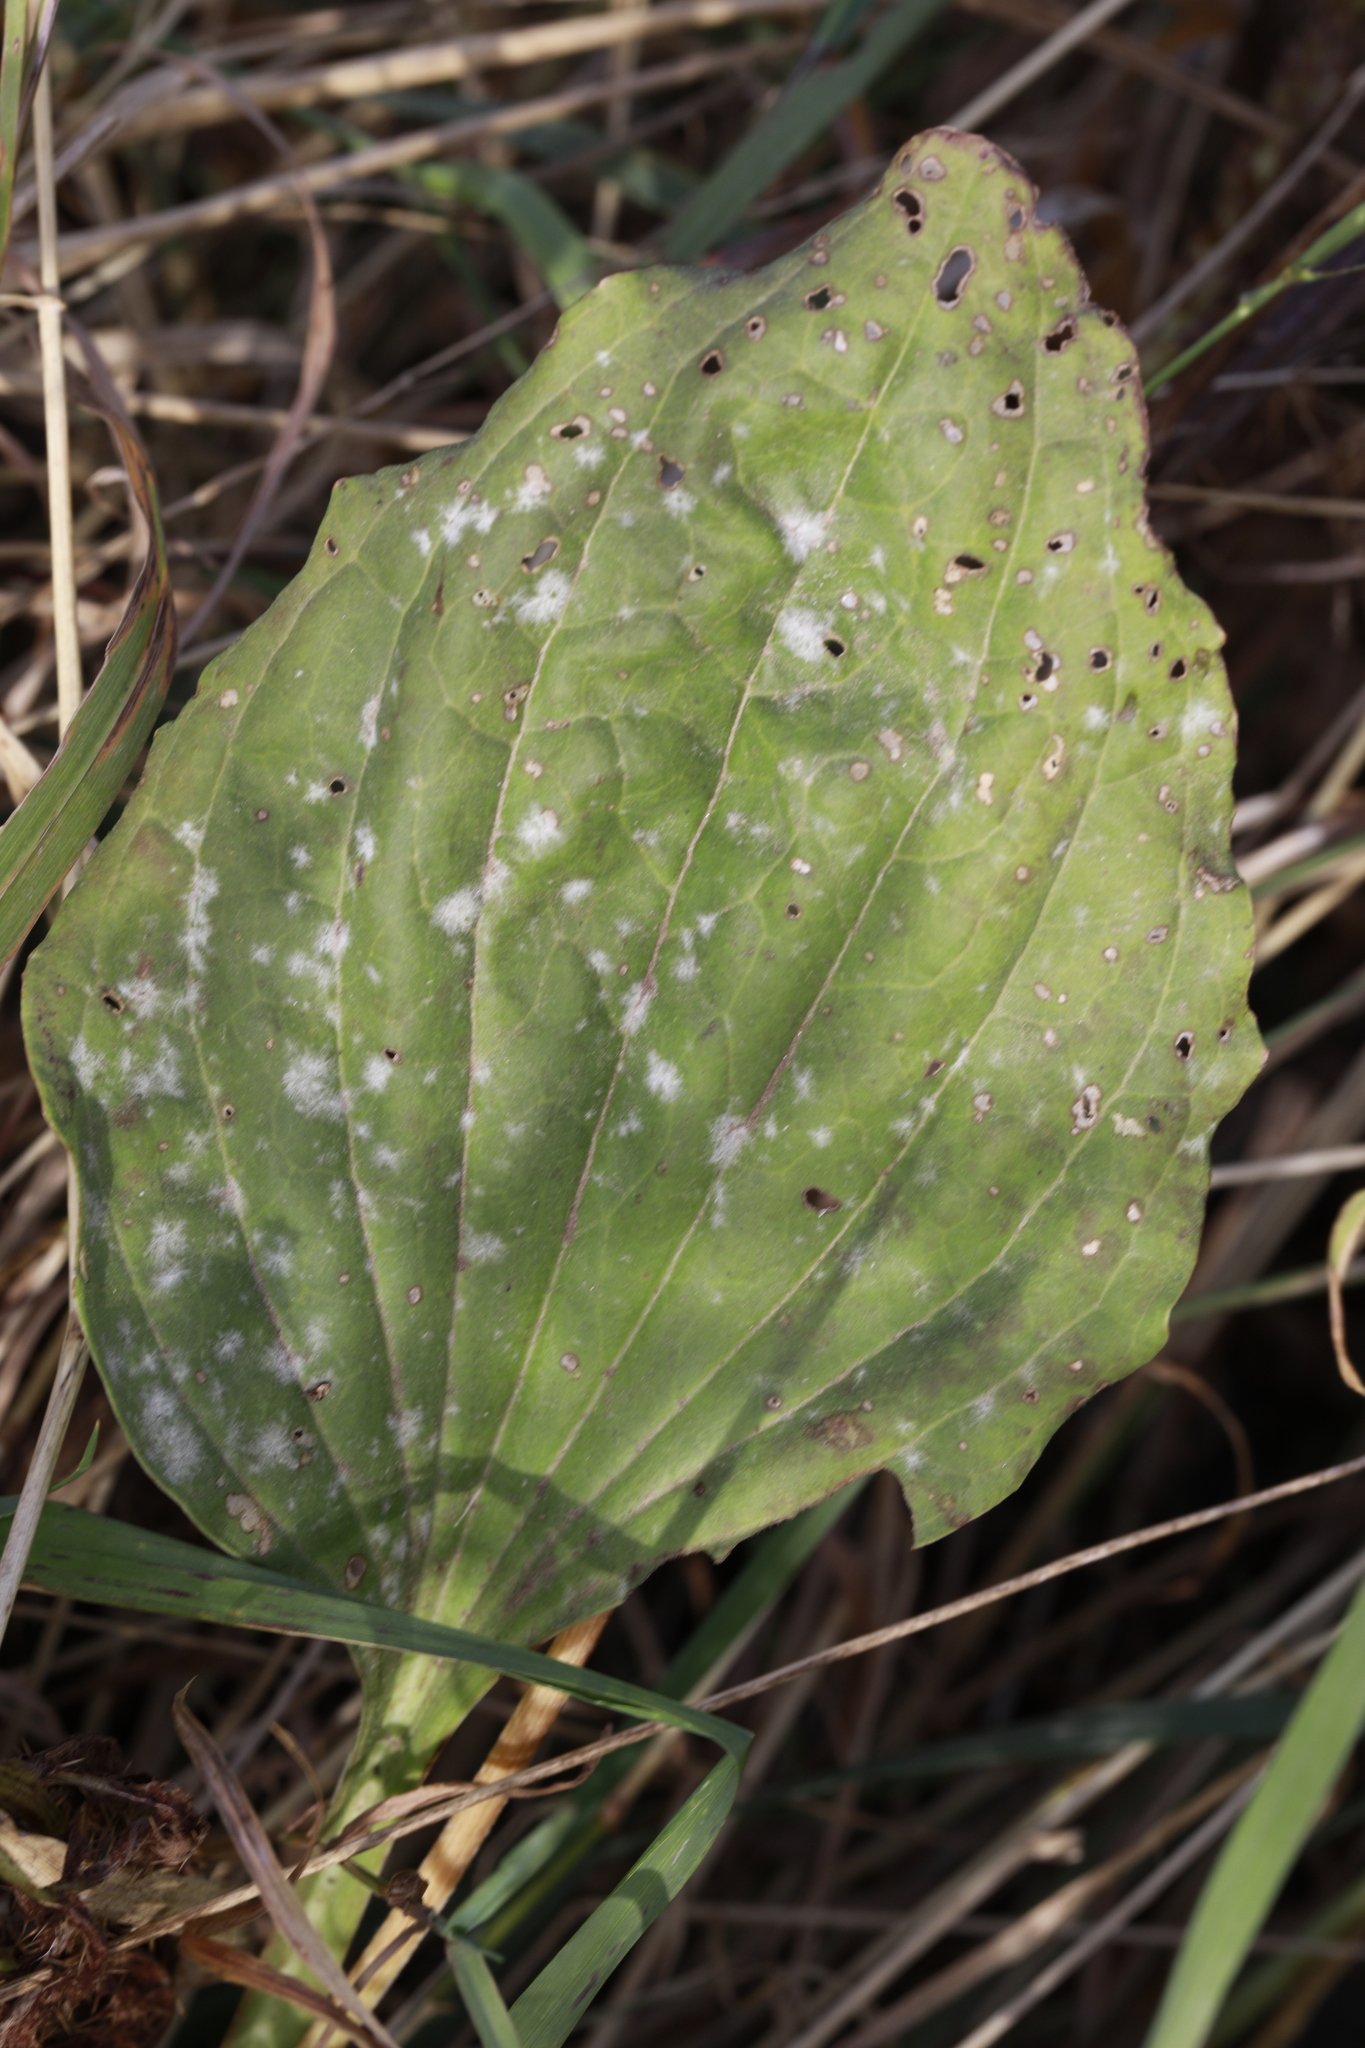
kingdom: Fungi
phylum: Ascomycota
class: Leotiomycetes
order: Helotiales
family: Erysiphaceae
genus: Golovinomyces
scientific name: Golovinomyces sordidus
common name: Plantain mildew
